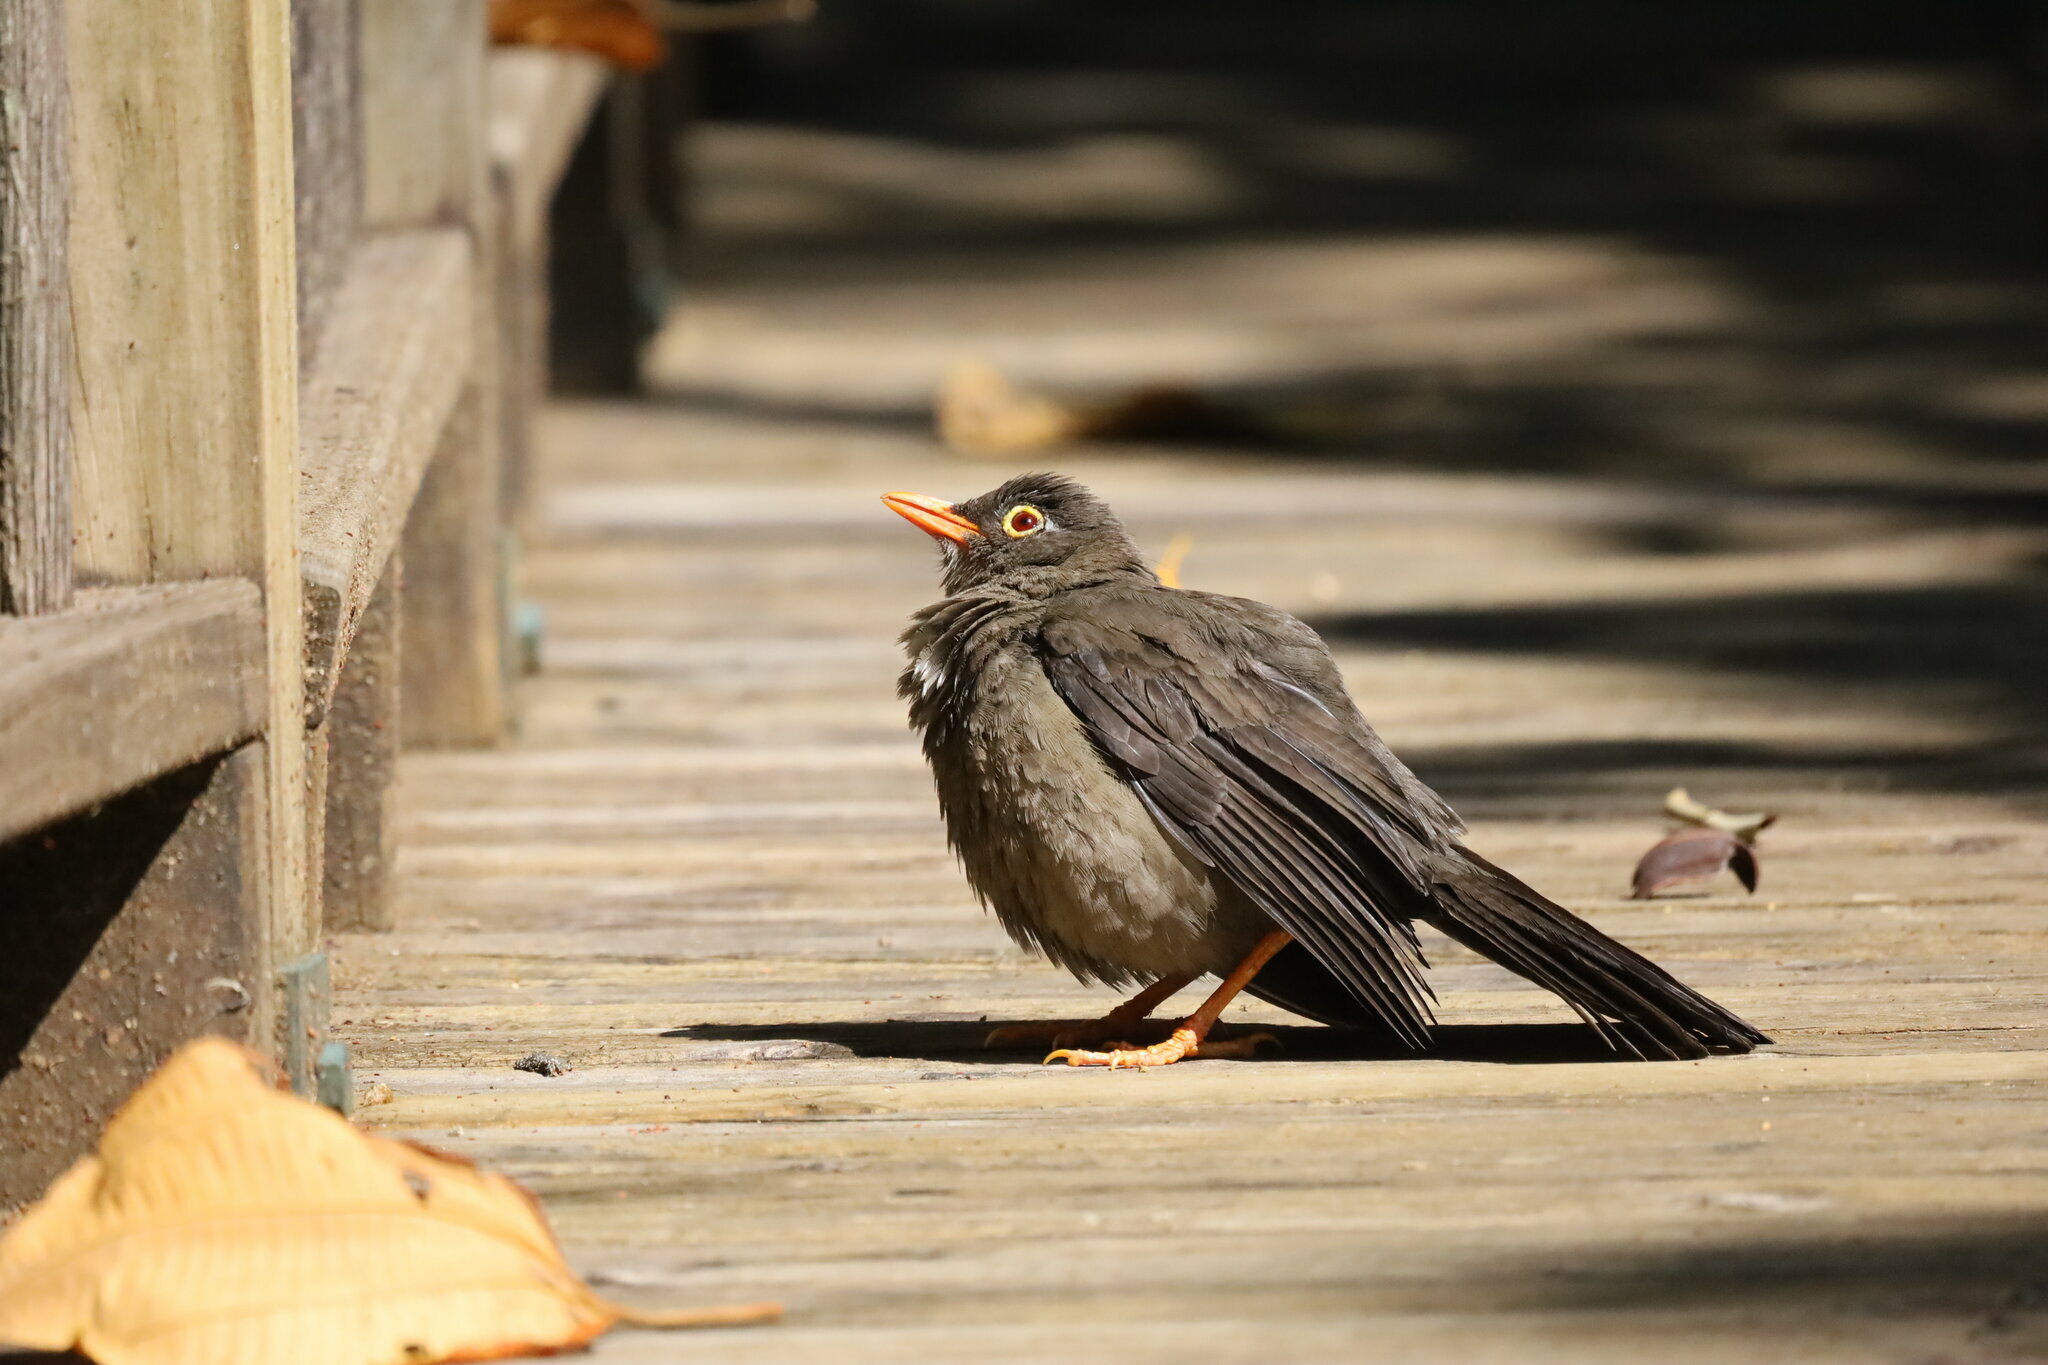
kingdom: Animalia
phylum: Chordata
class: Aves
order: Passeriformes
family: Turdidae
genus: Turdus
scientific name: Turdus fuscater
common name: Great thrush
